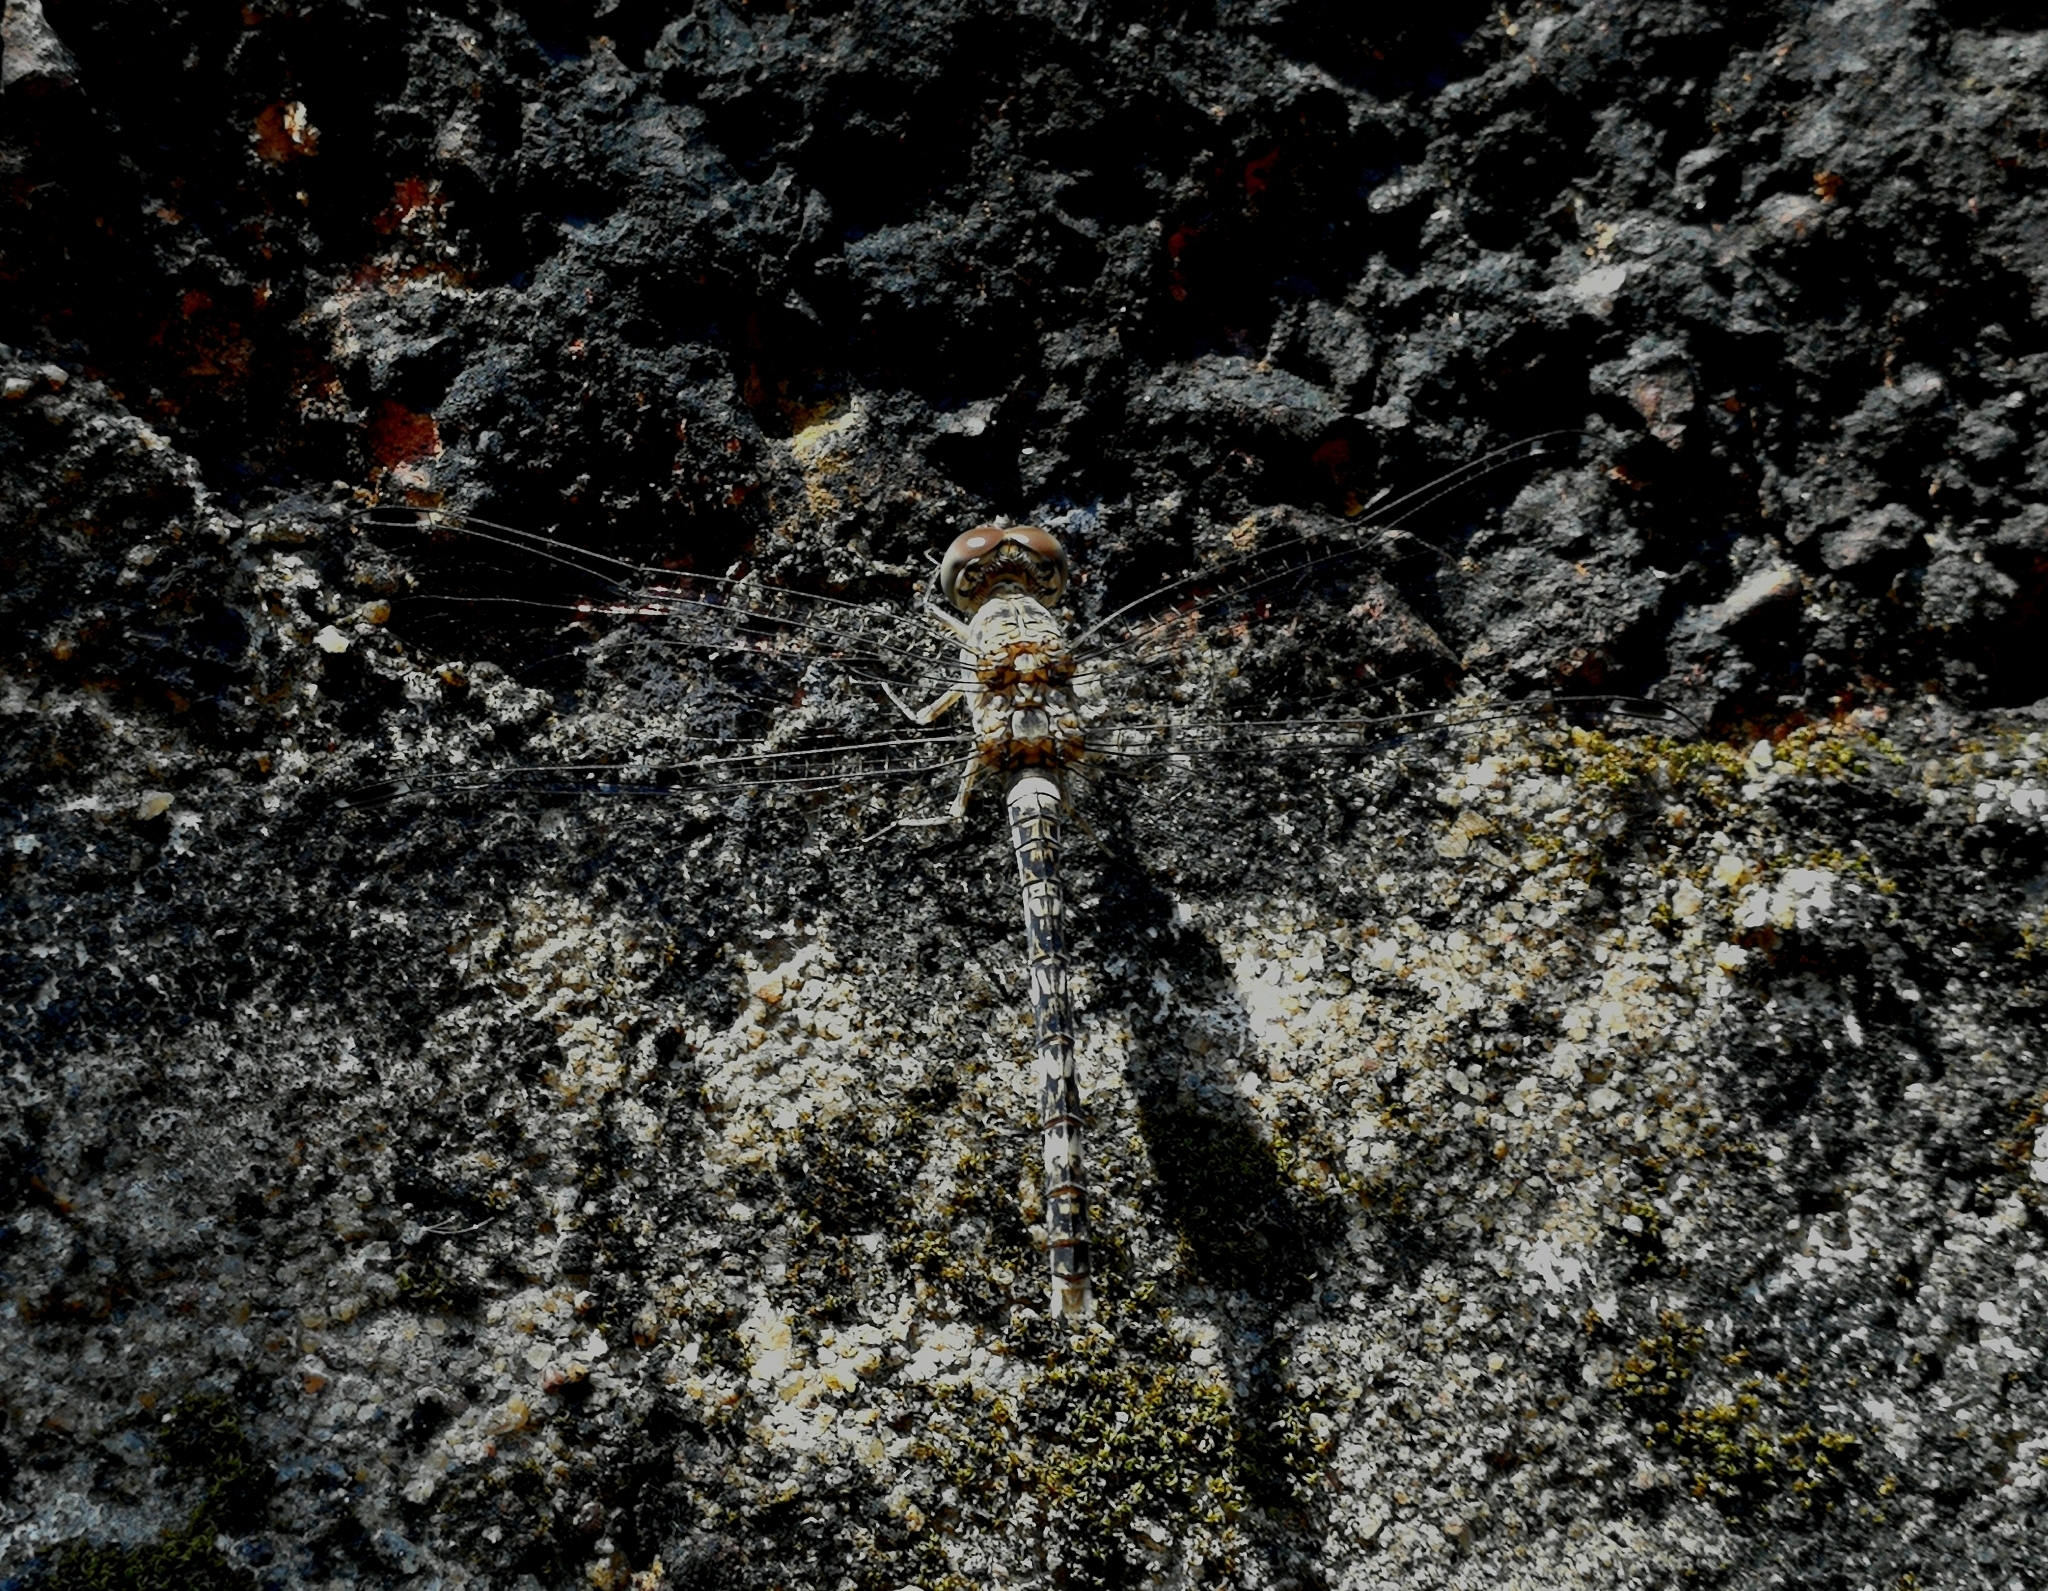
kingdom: Animalia
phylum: Arthropoda
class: Insecta
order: Odonata
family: Libellulidae
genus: Bradinopyga
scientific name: Bradinopyga geminata
